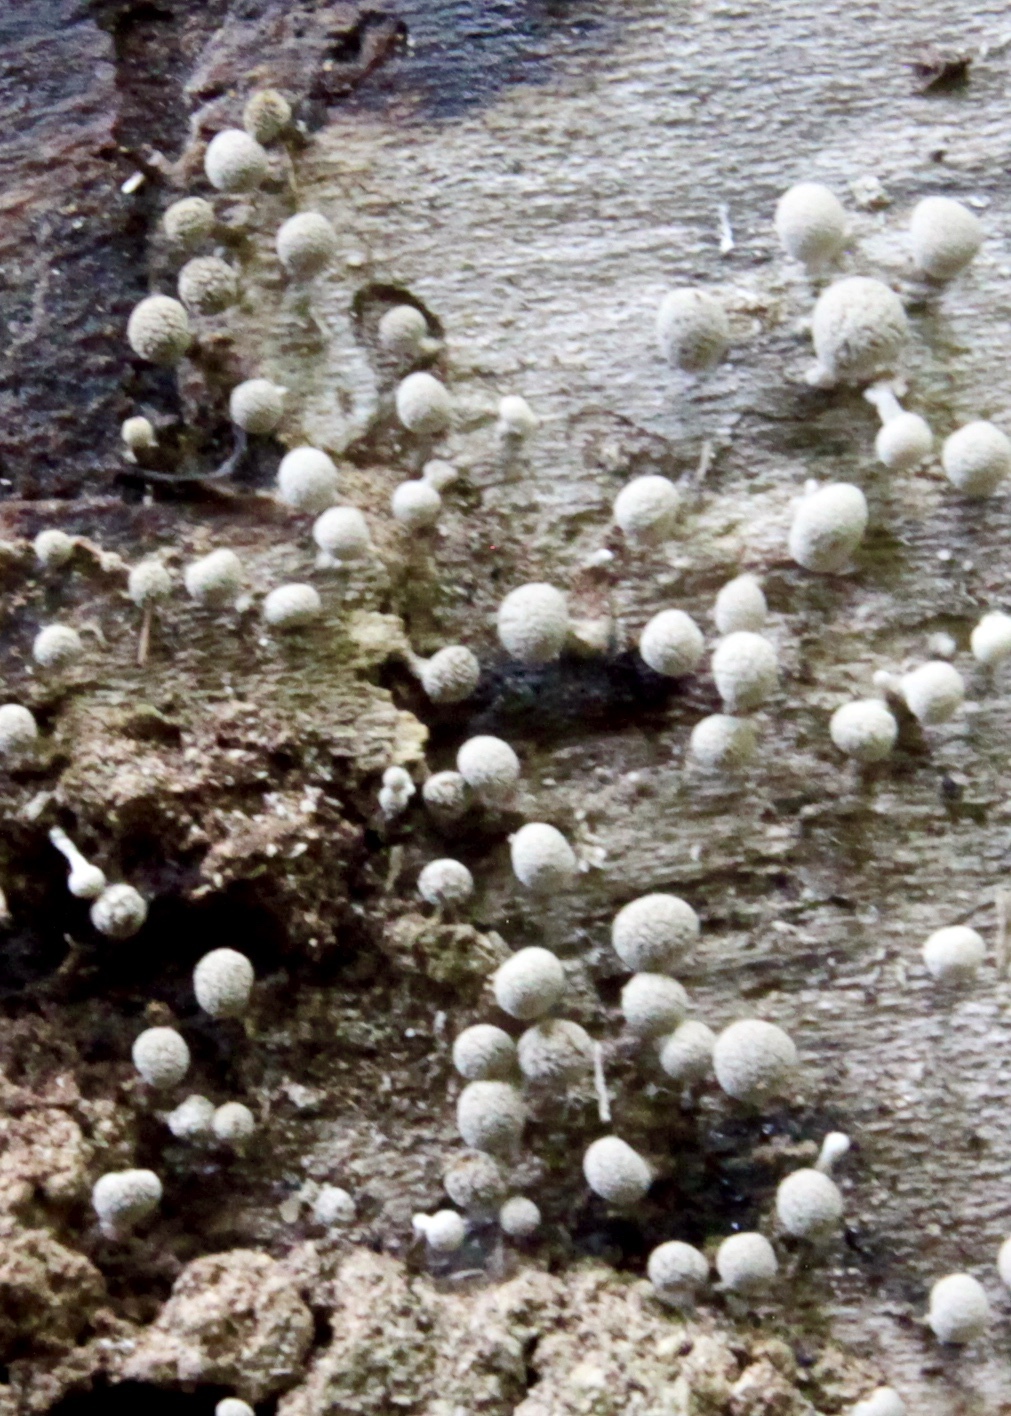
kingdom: Fungi
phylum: Basidiomycota
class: Atractiellomycetes
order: Atractiellales
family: Phleogenaceae
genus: Phleogena
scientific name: Phleogena faginea
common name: Fenugreek stalkball
